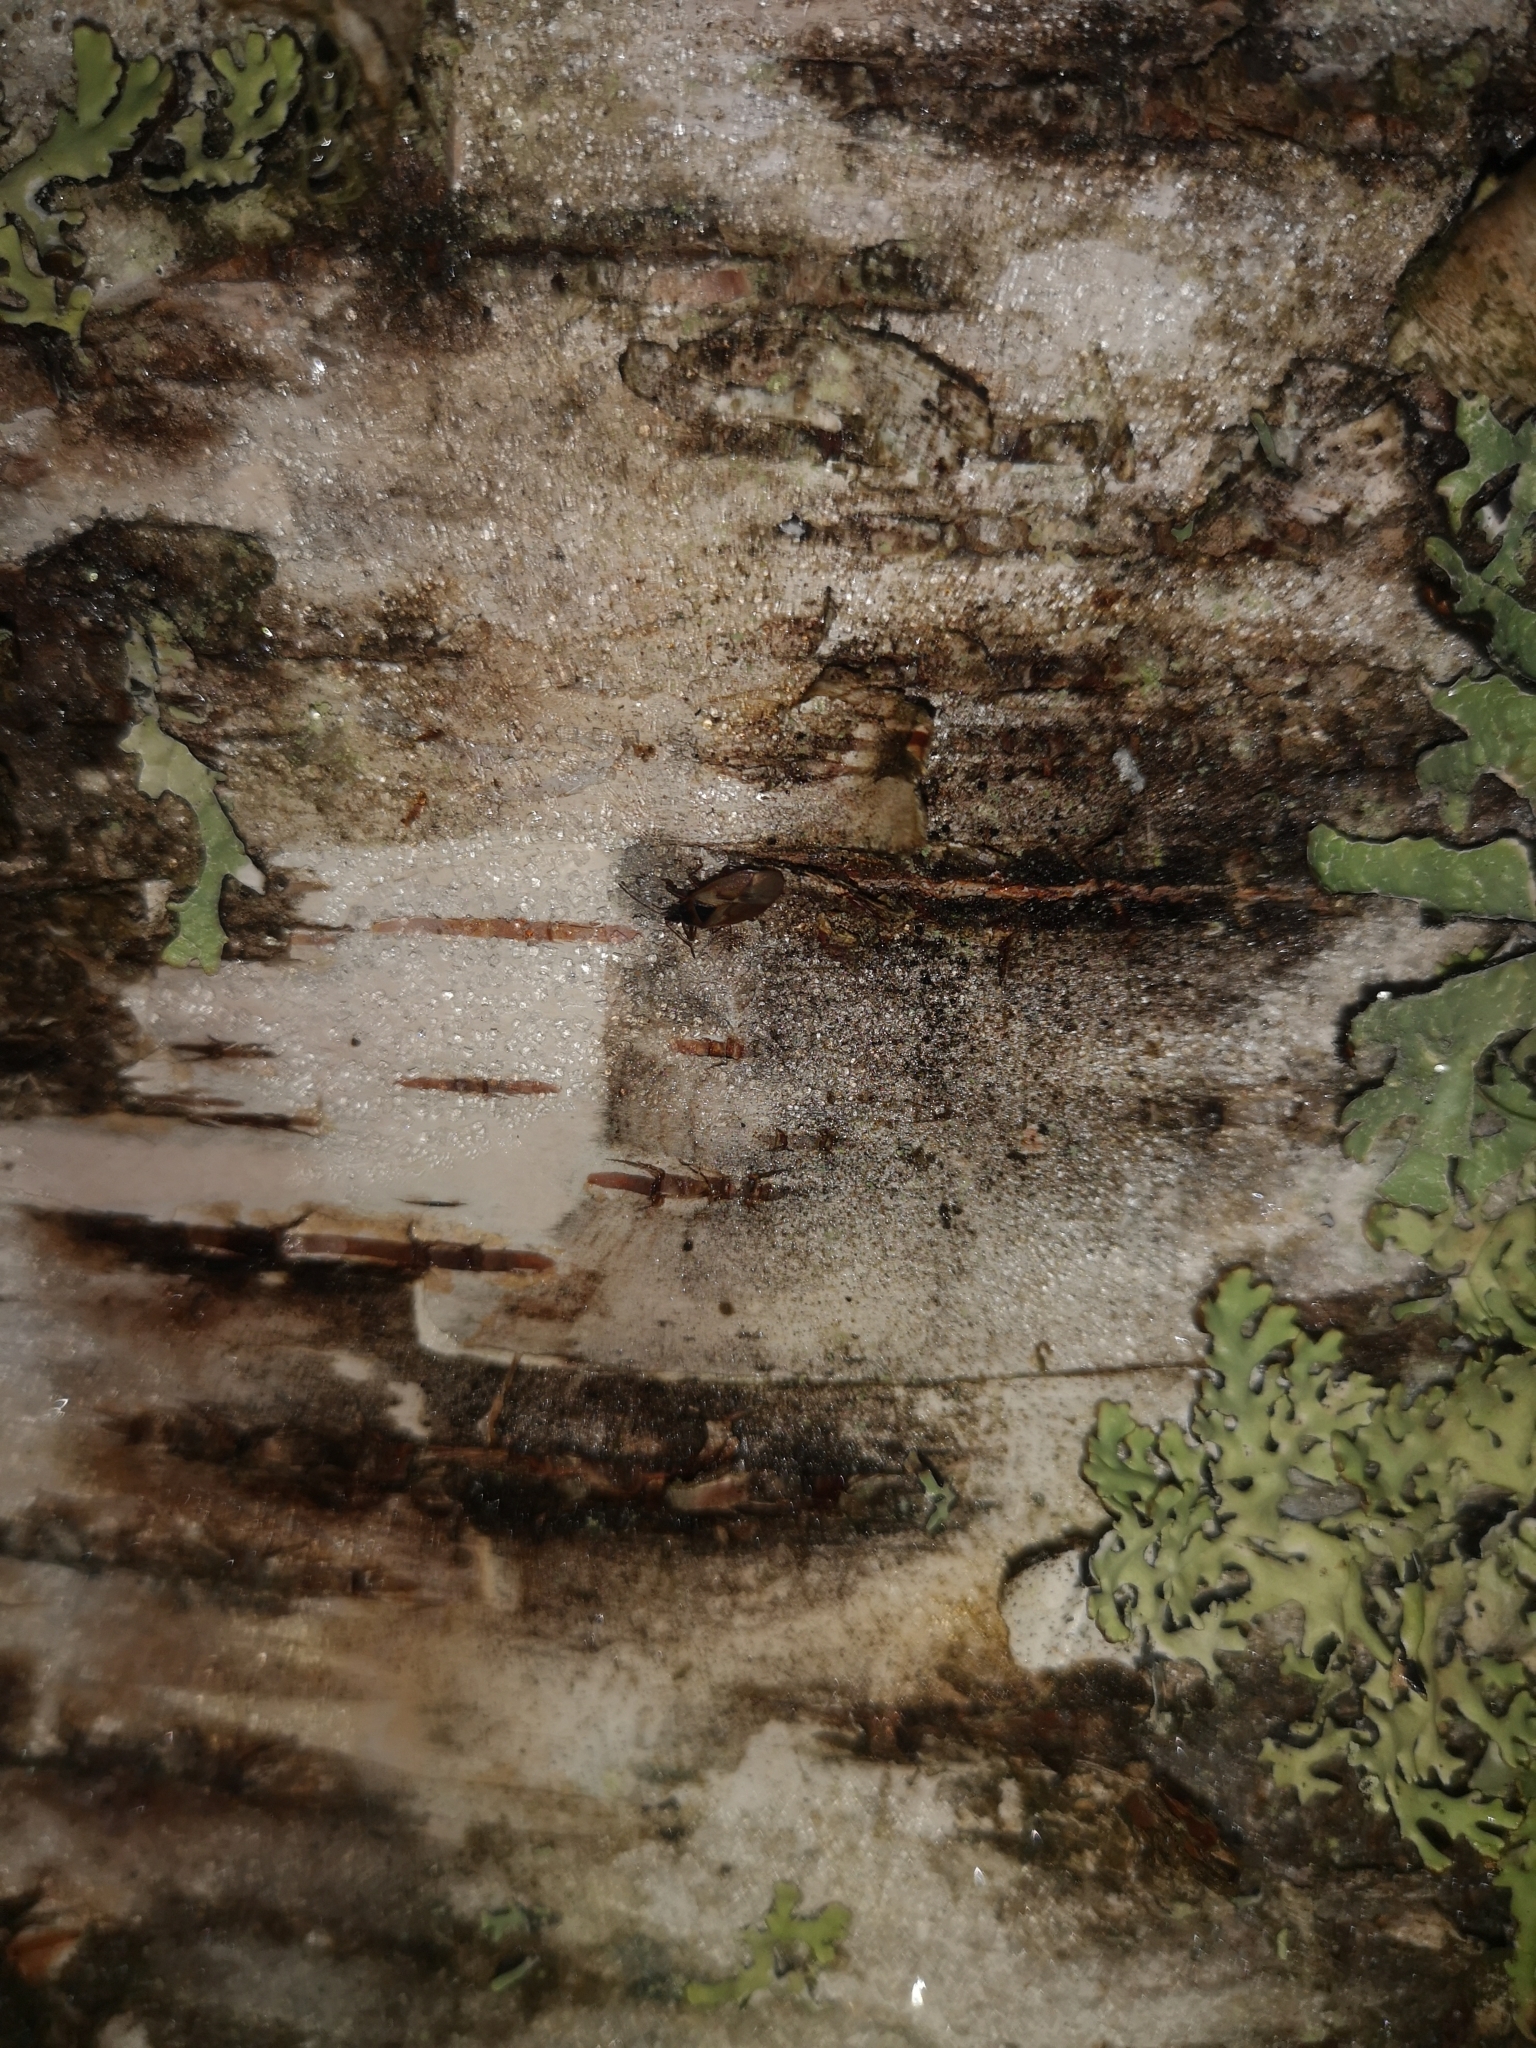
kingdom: Animalia
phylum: Arthropoda
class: Insecta
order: Hemiptera
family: Rhyparochromidae
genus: Gastrodes
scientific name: Gastrodes abietum
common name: Spruce cone bug
